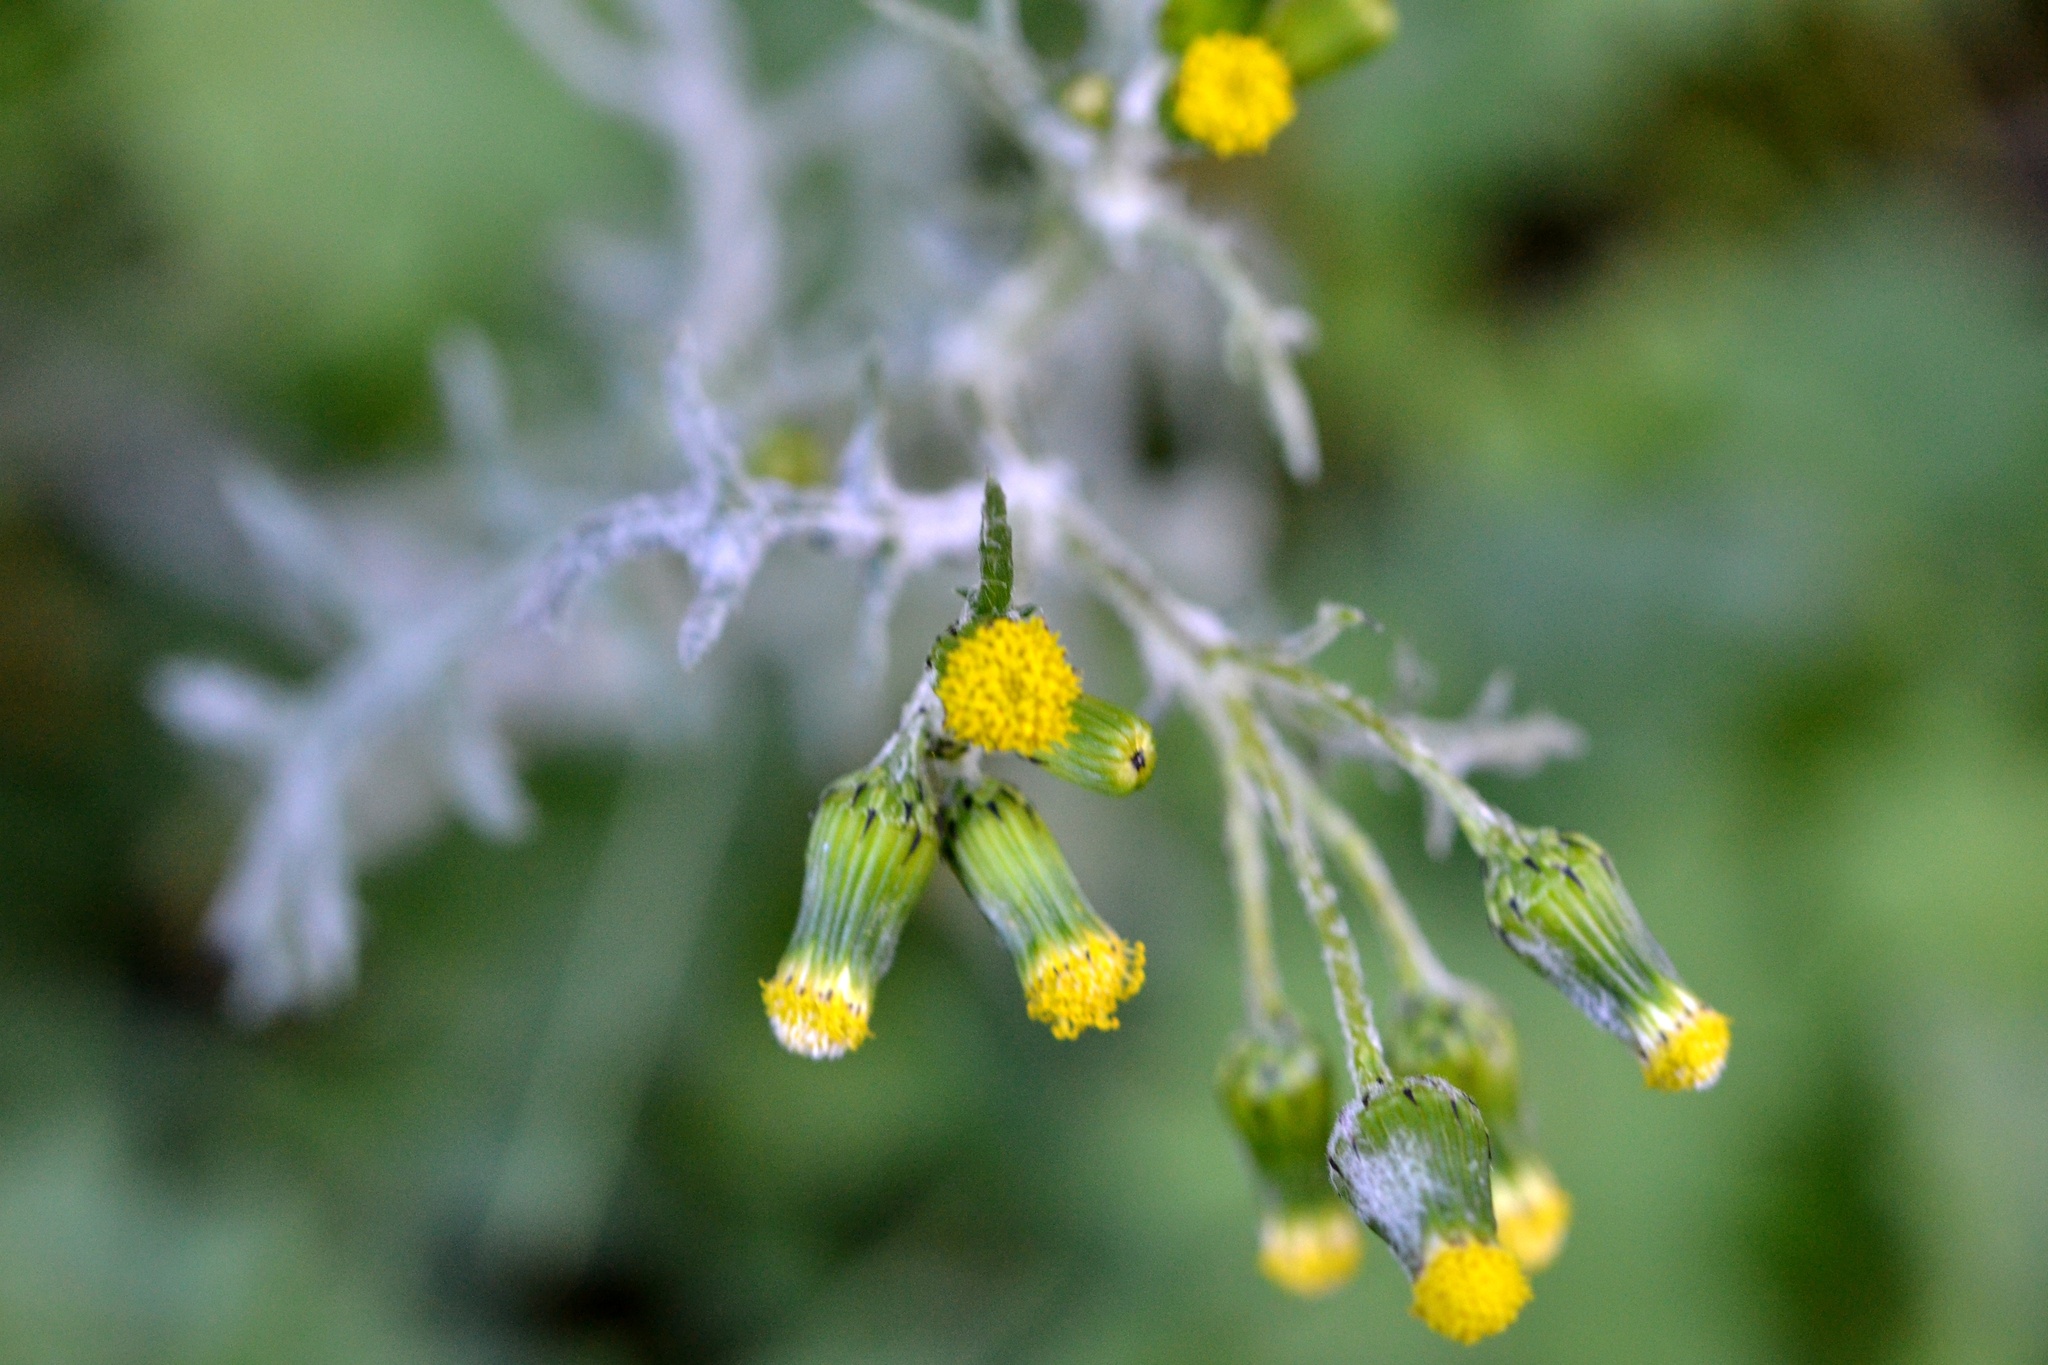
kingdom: Plantae
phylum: Tracheophyta
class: Magnoliopsida
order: Asterales
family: Asteraceae
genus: Senecio
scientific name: Senecio vulgaris
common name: Old-man-in-the-spring
